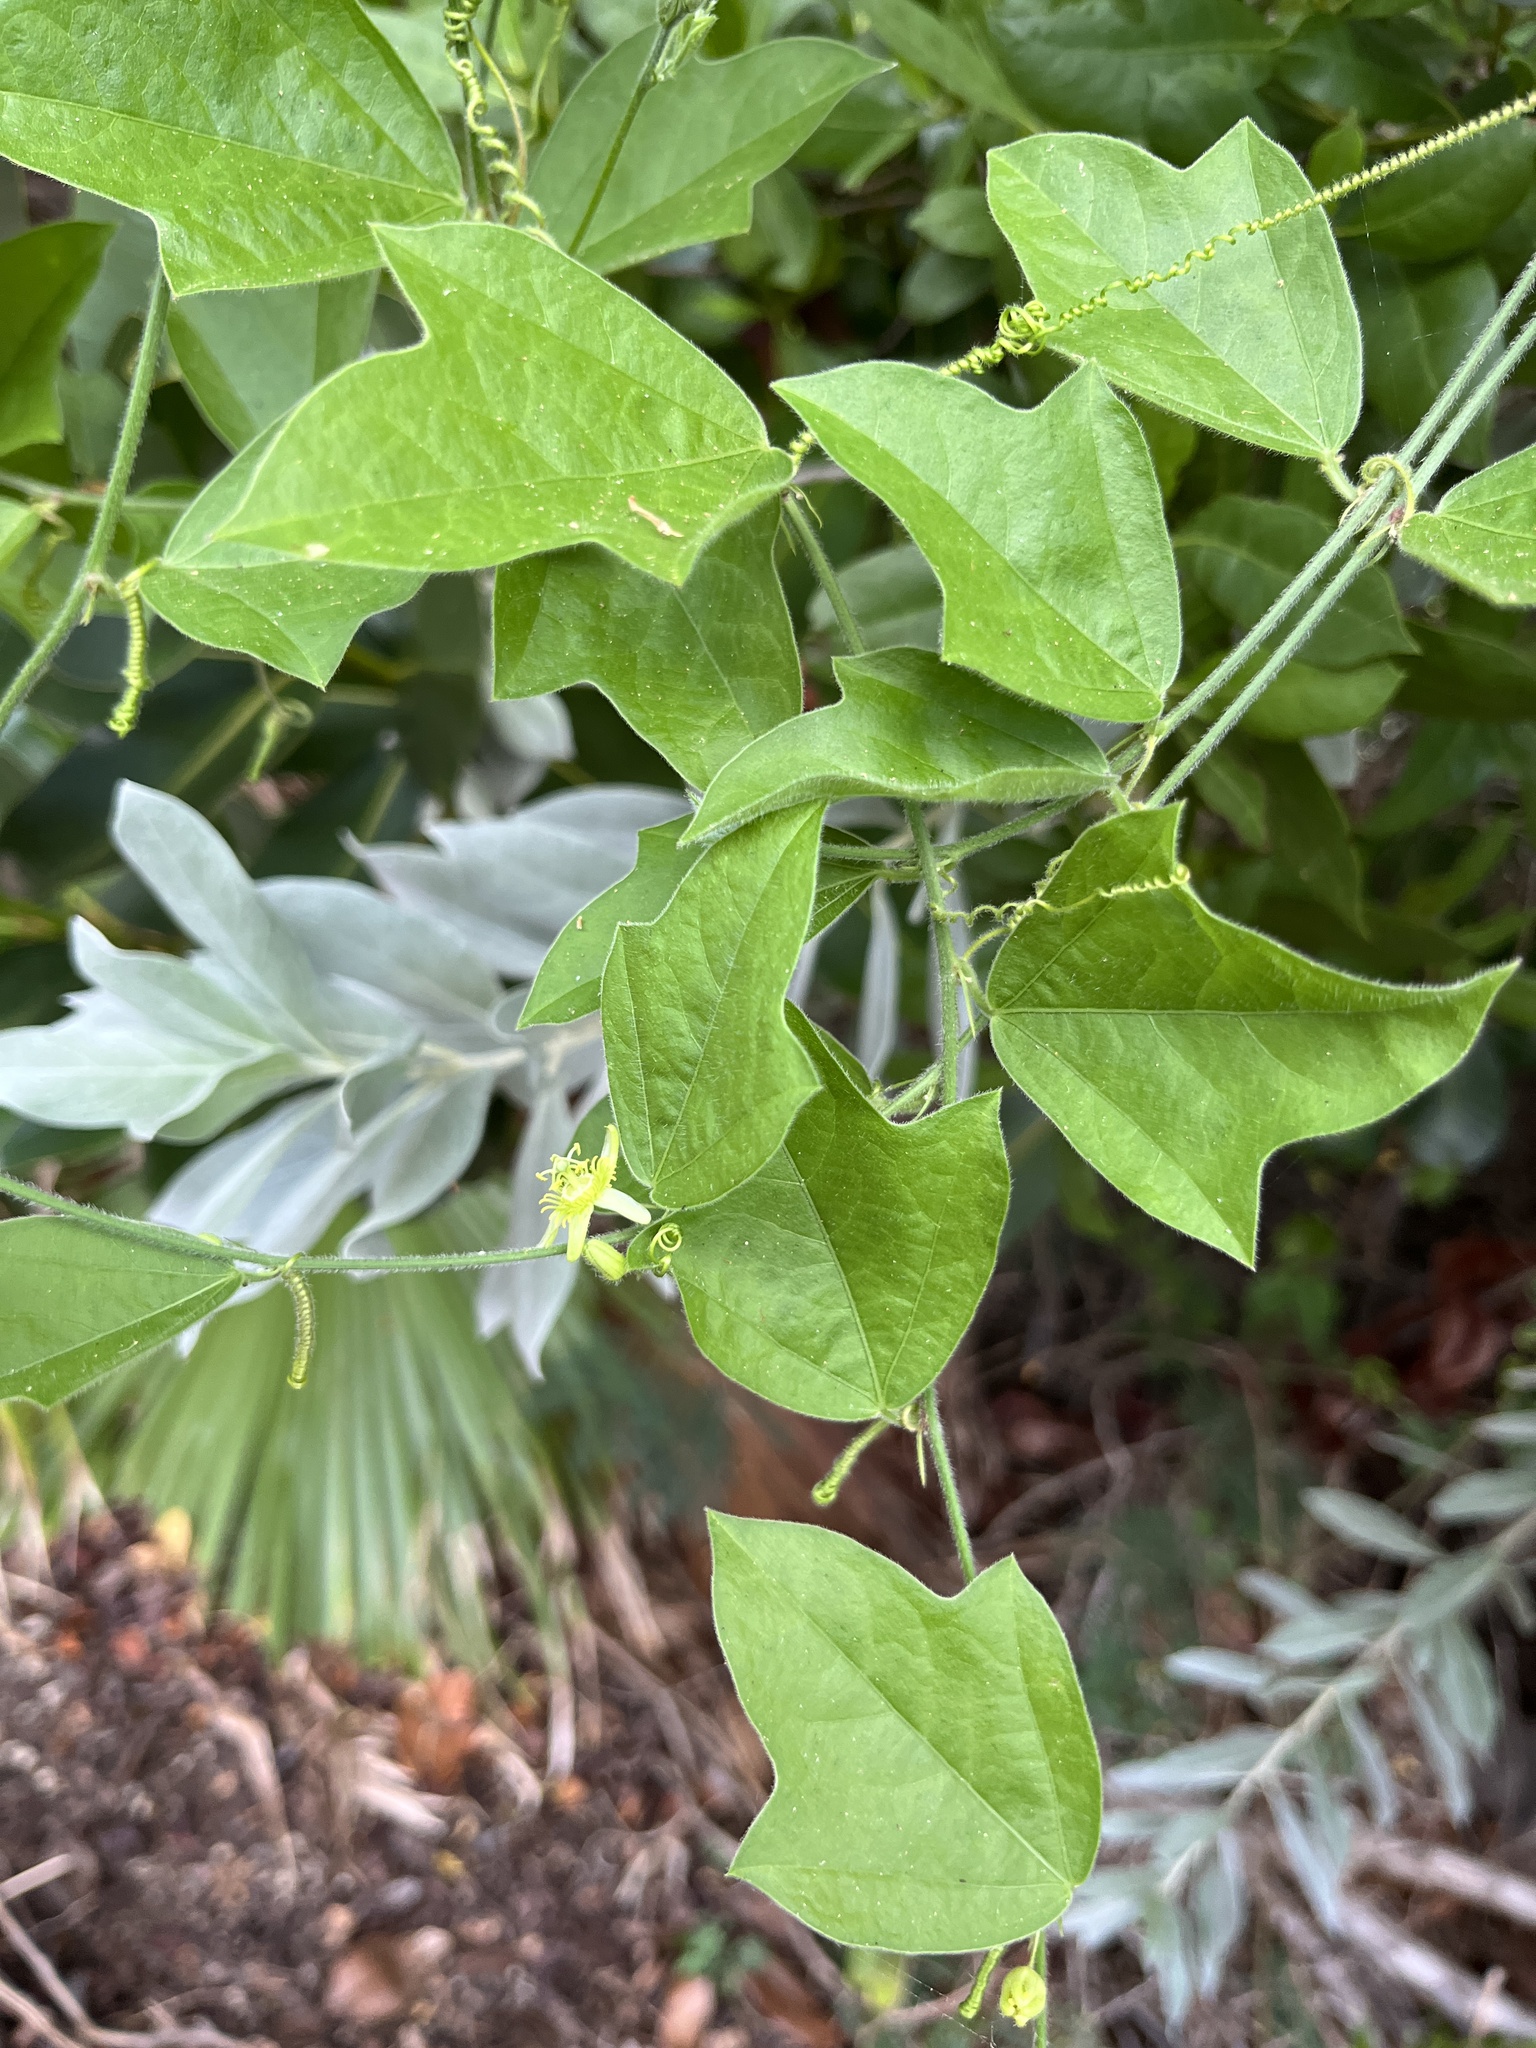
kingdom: Plantae
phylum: Tracheophyta
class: Magnoliopsida
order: Malpighiales
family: Passifloraceae
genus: Passiflora
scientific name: Passiflora suberosa
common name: Wild passionfruit
